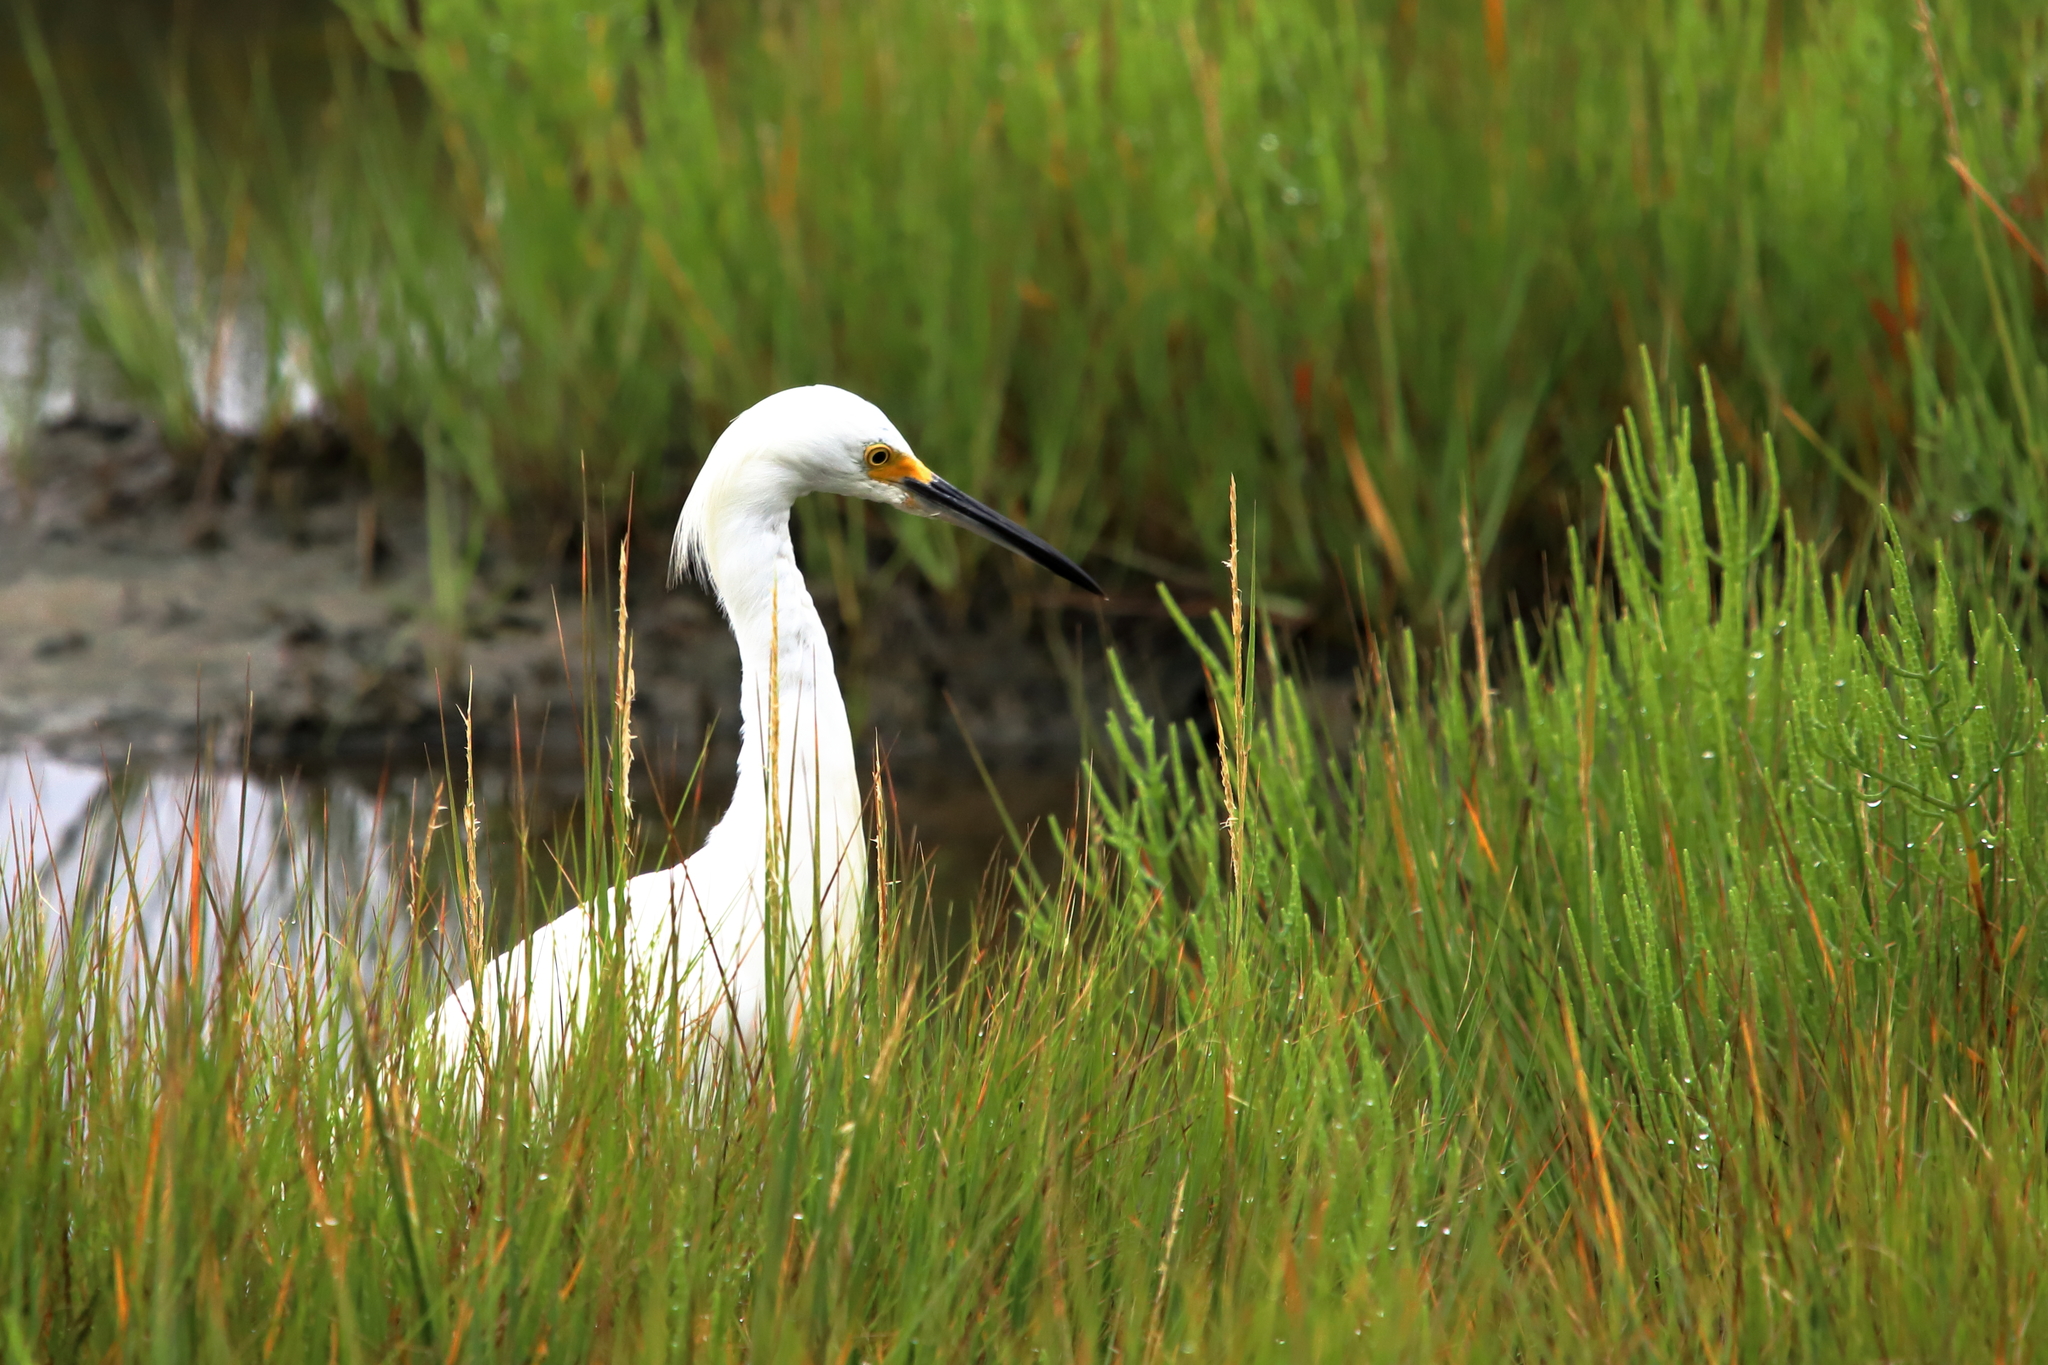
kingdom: Animalia
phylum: Chordata
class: Aves
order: Pelecaniformes
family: Ardeidae
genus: Egretta
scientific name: Egretta thula
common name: Snowy egret
